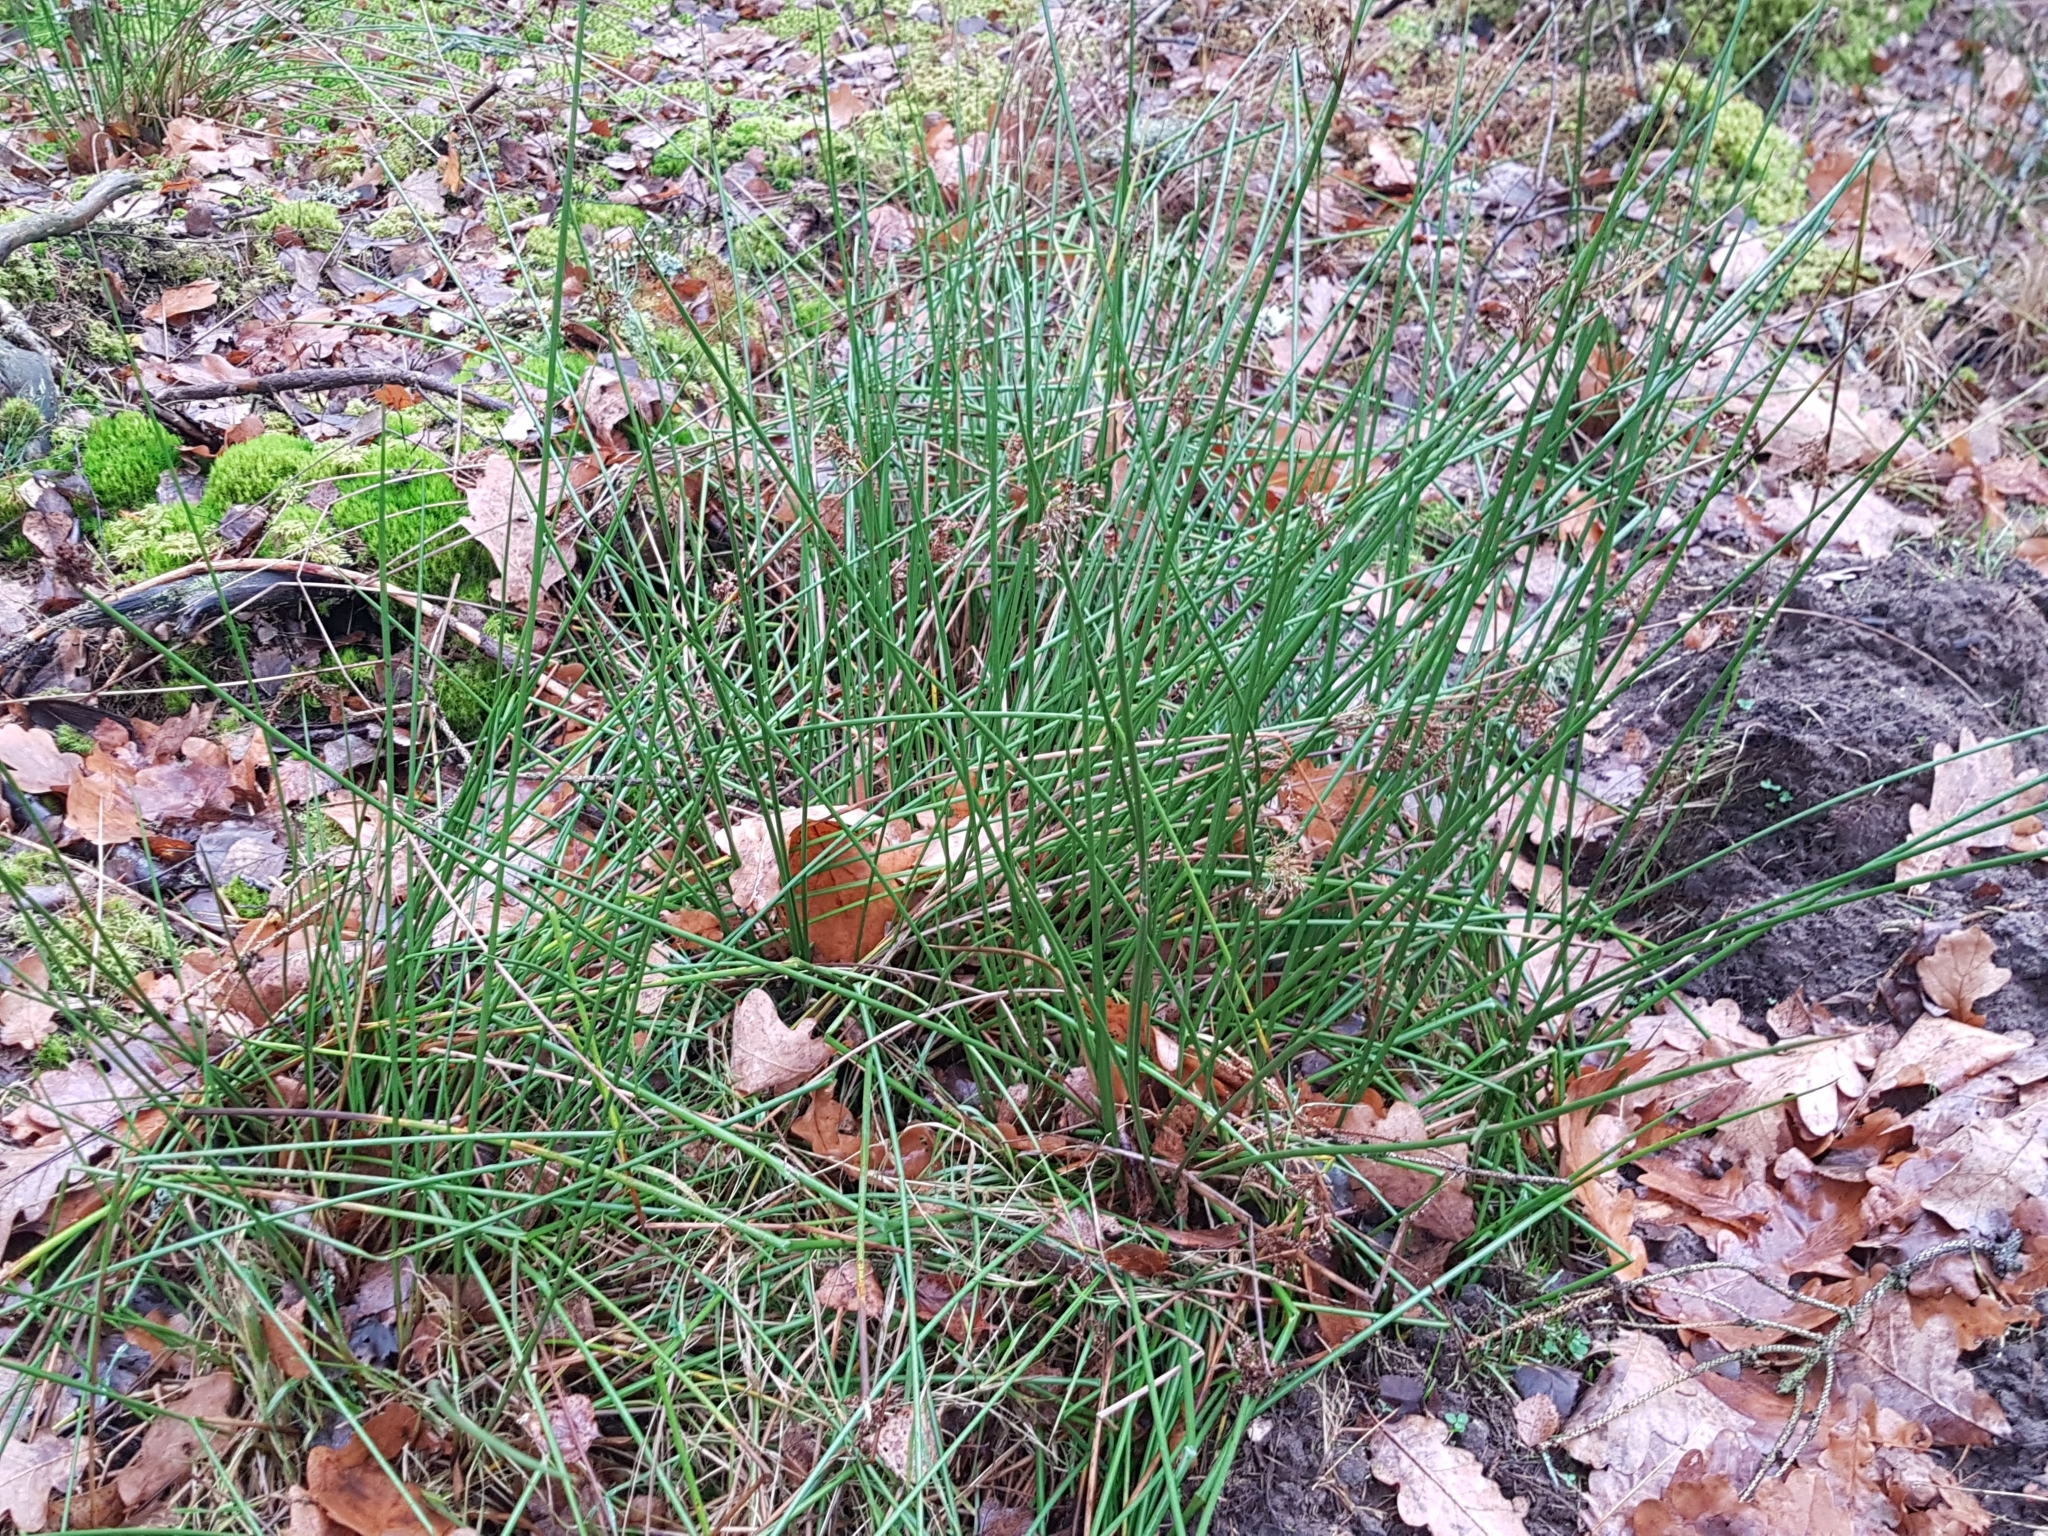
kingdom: Plantae
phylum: Tracheophyta
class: Liliopsida
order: Poales
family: Juncaceae
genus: Juncus
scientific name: Juncus effusus
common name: Soft rush
